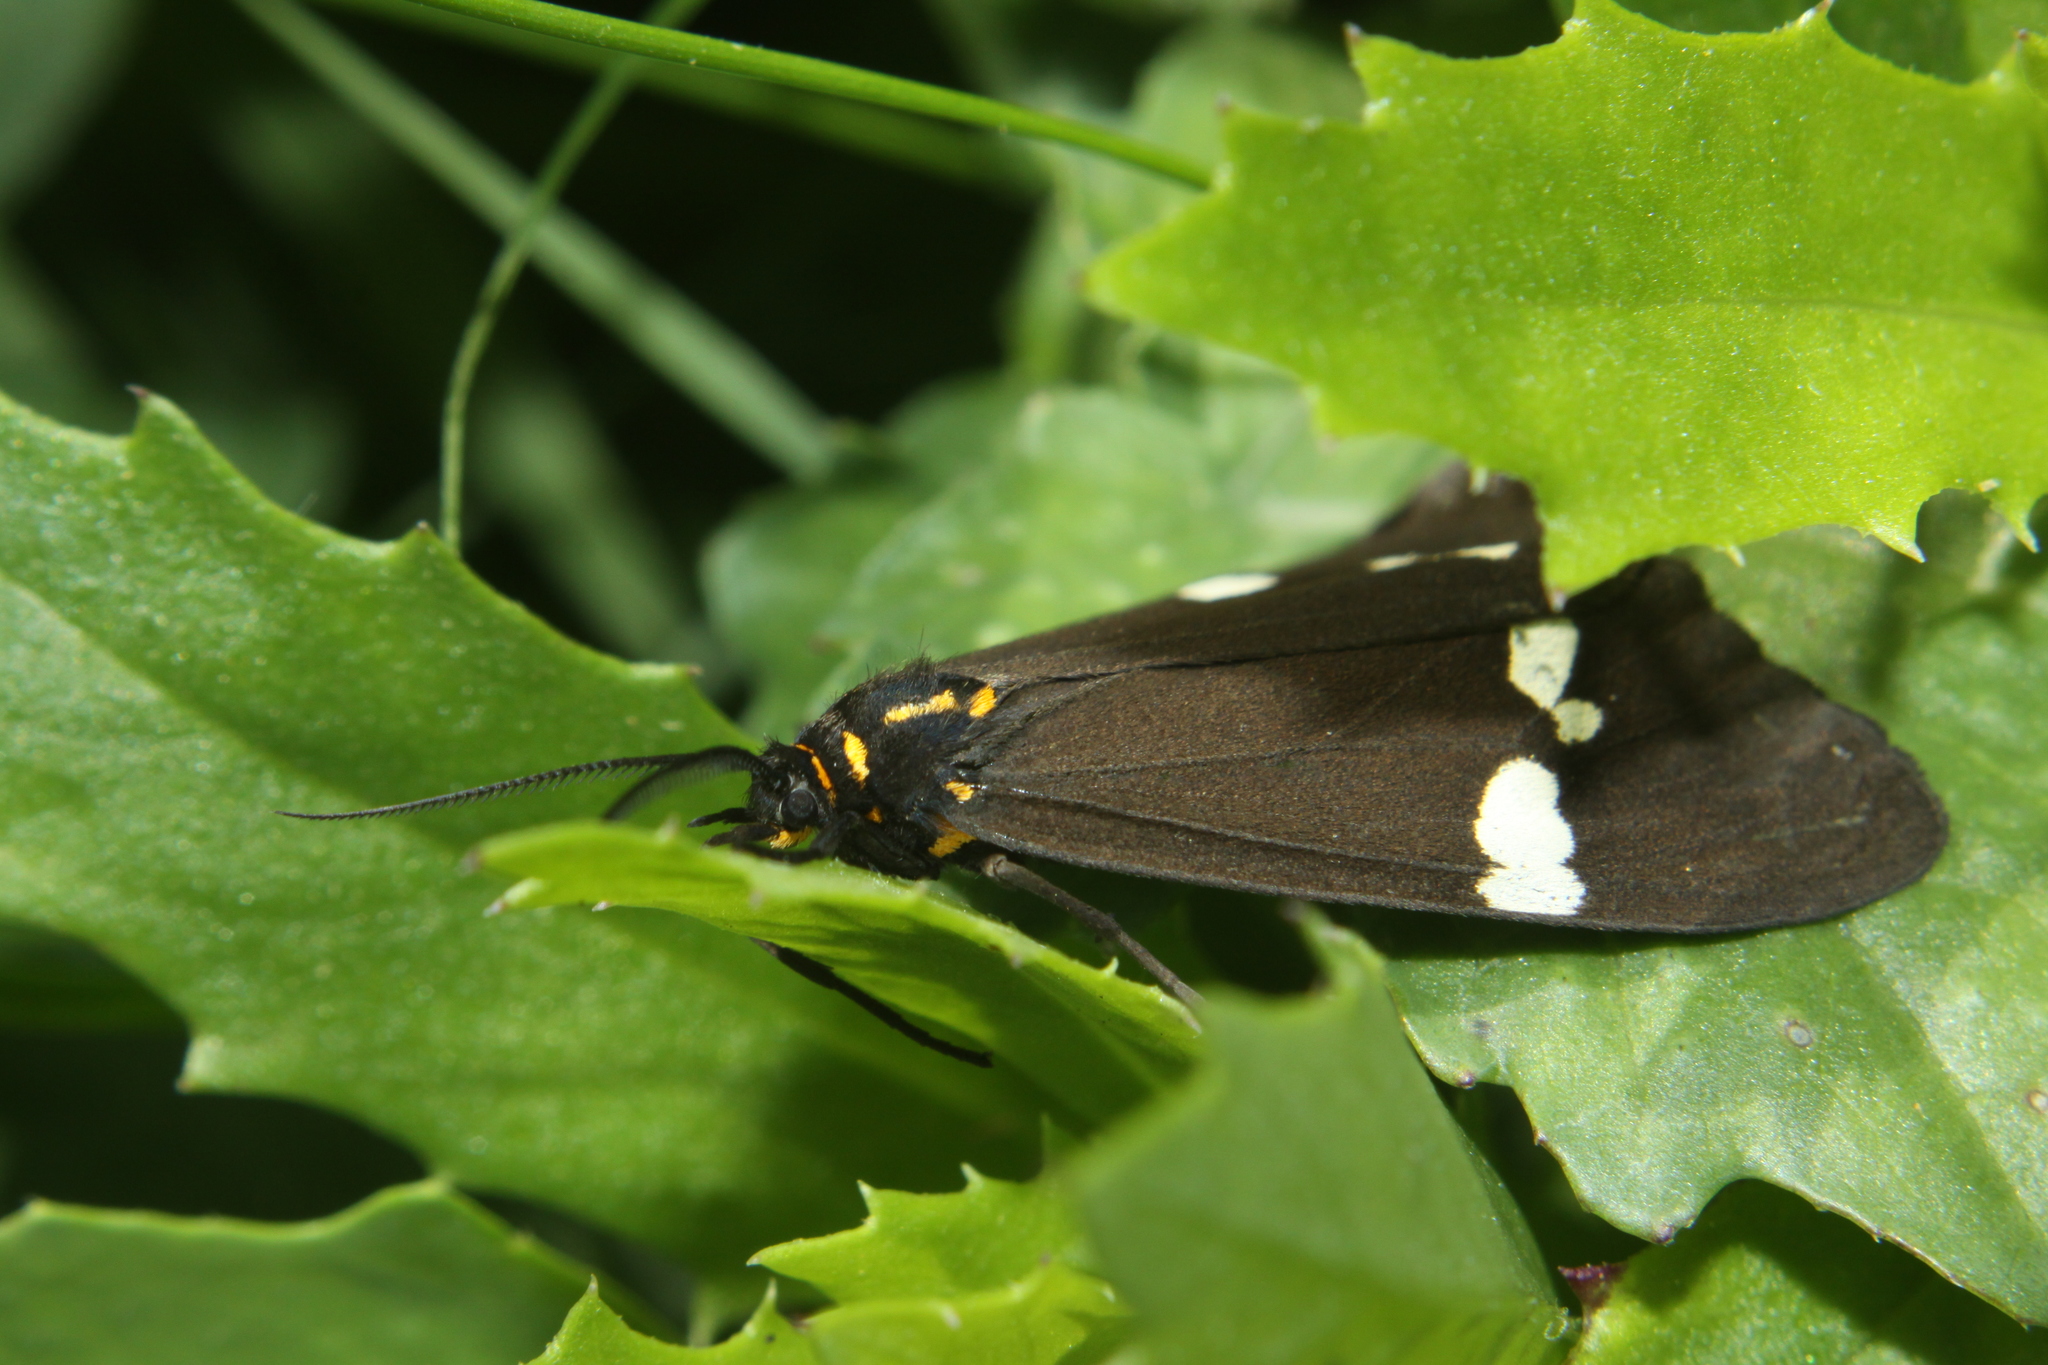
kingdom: Animalia
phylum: Arthropoda
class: Insecta
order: Lepidoptera
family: Erebidae
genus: Nyctemera
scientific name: Nyctemera annulatum
